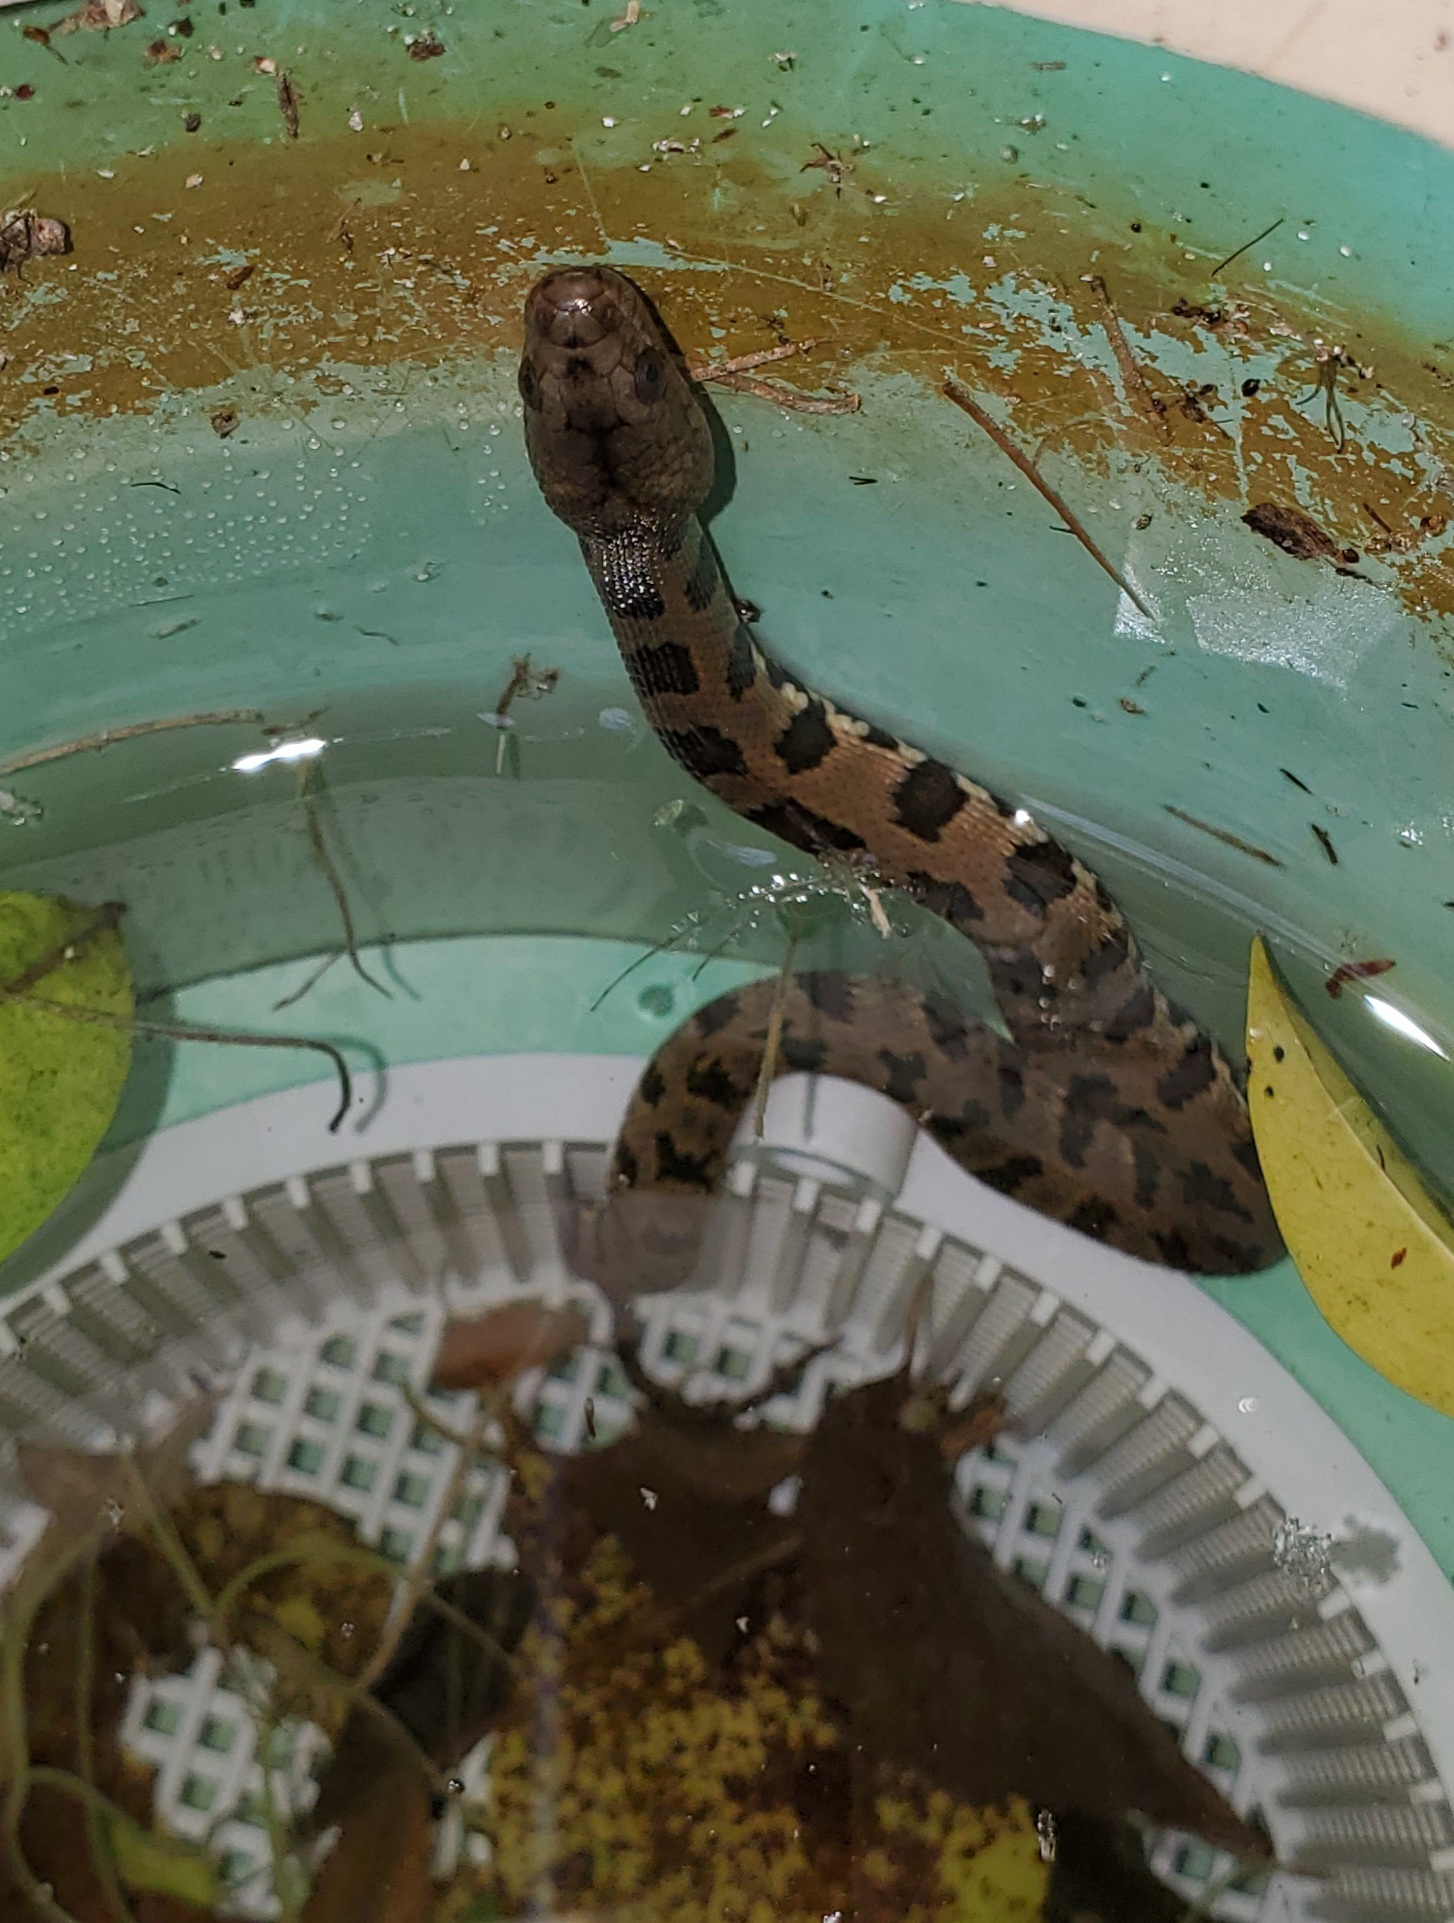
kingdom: Animalia
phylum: Chordata
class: Squamata
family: Colubridae
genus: Nerodia
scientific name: Nerodia taxispilota
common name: Brown water snake
